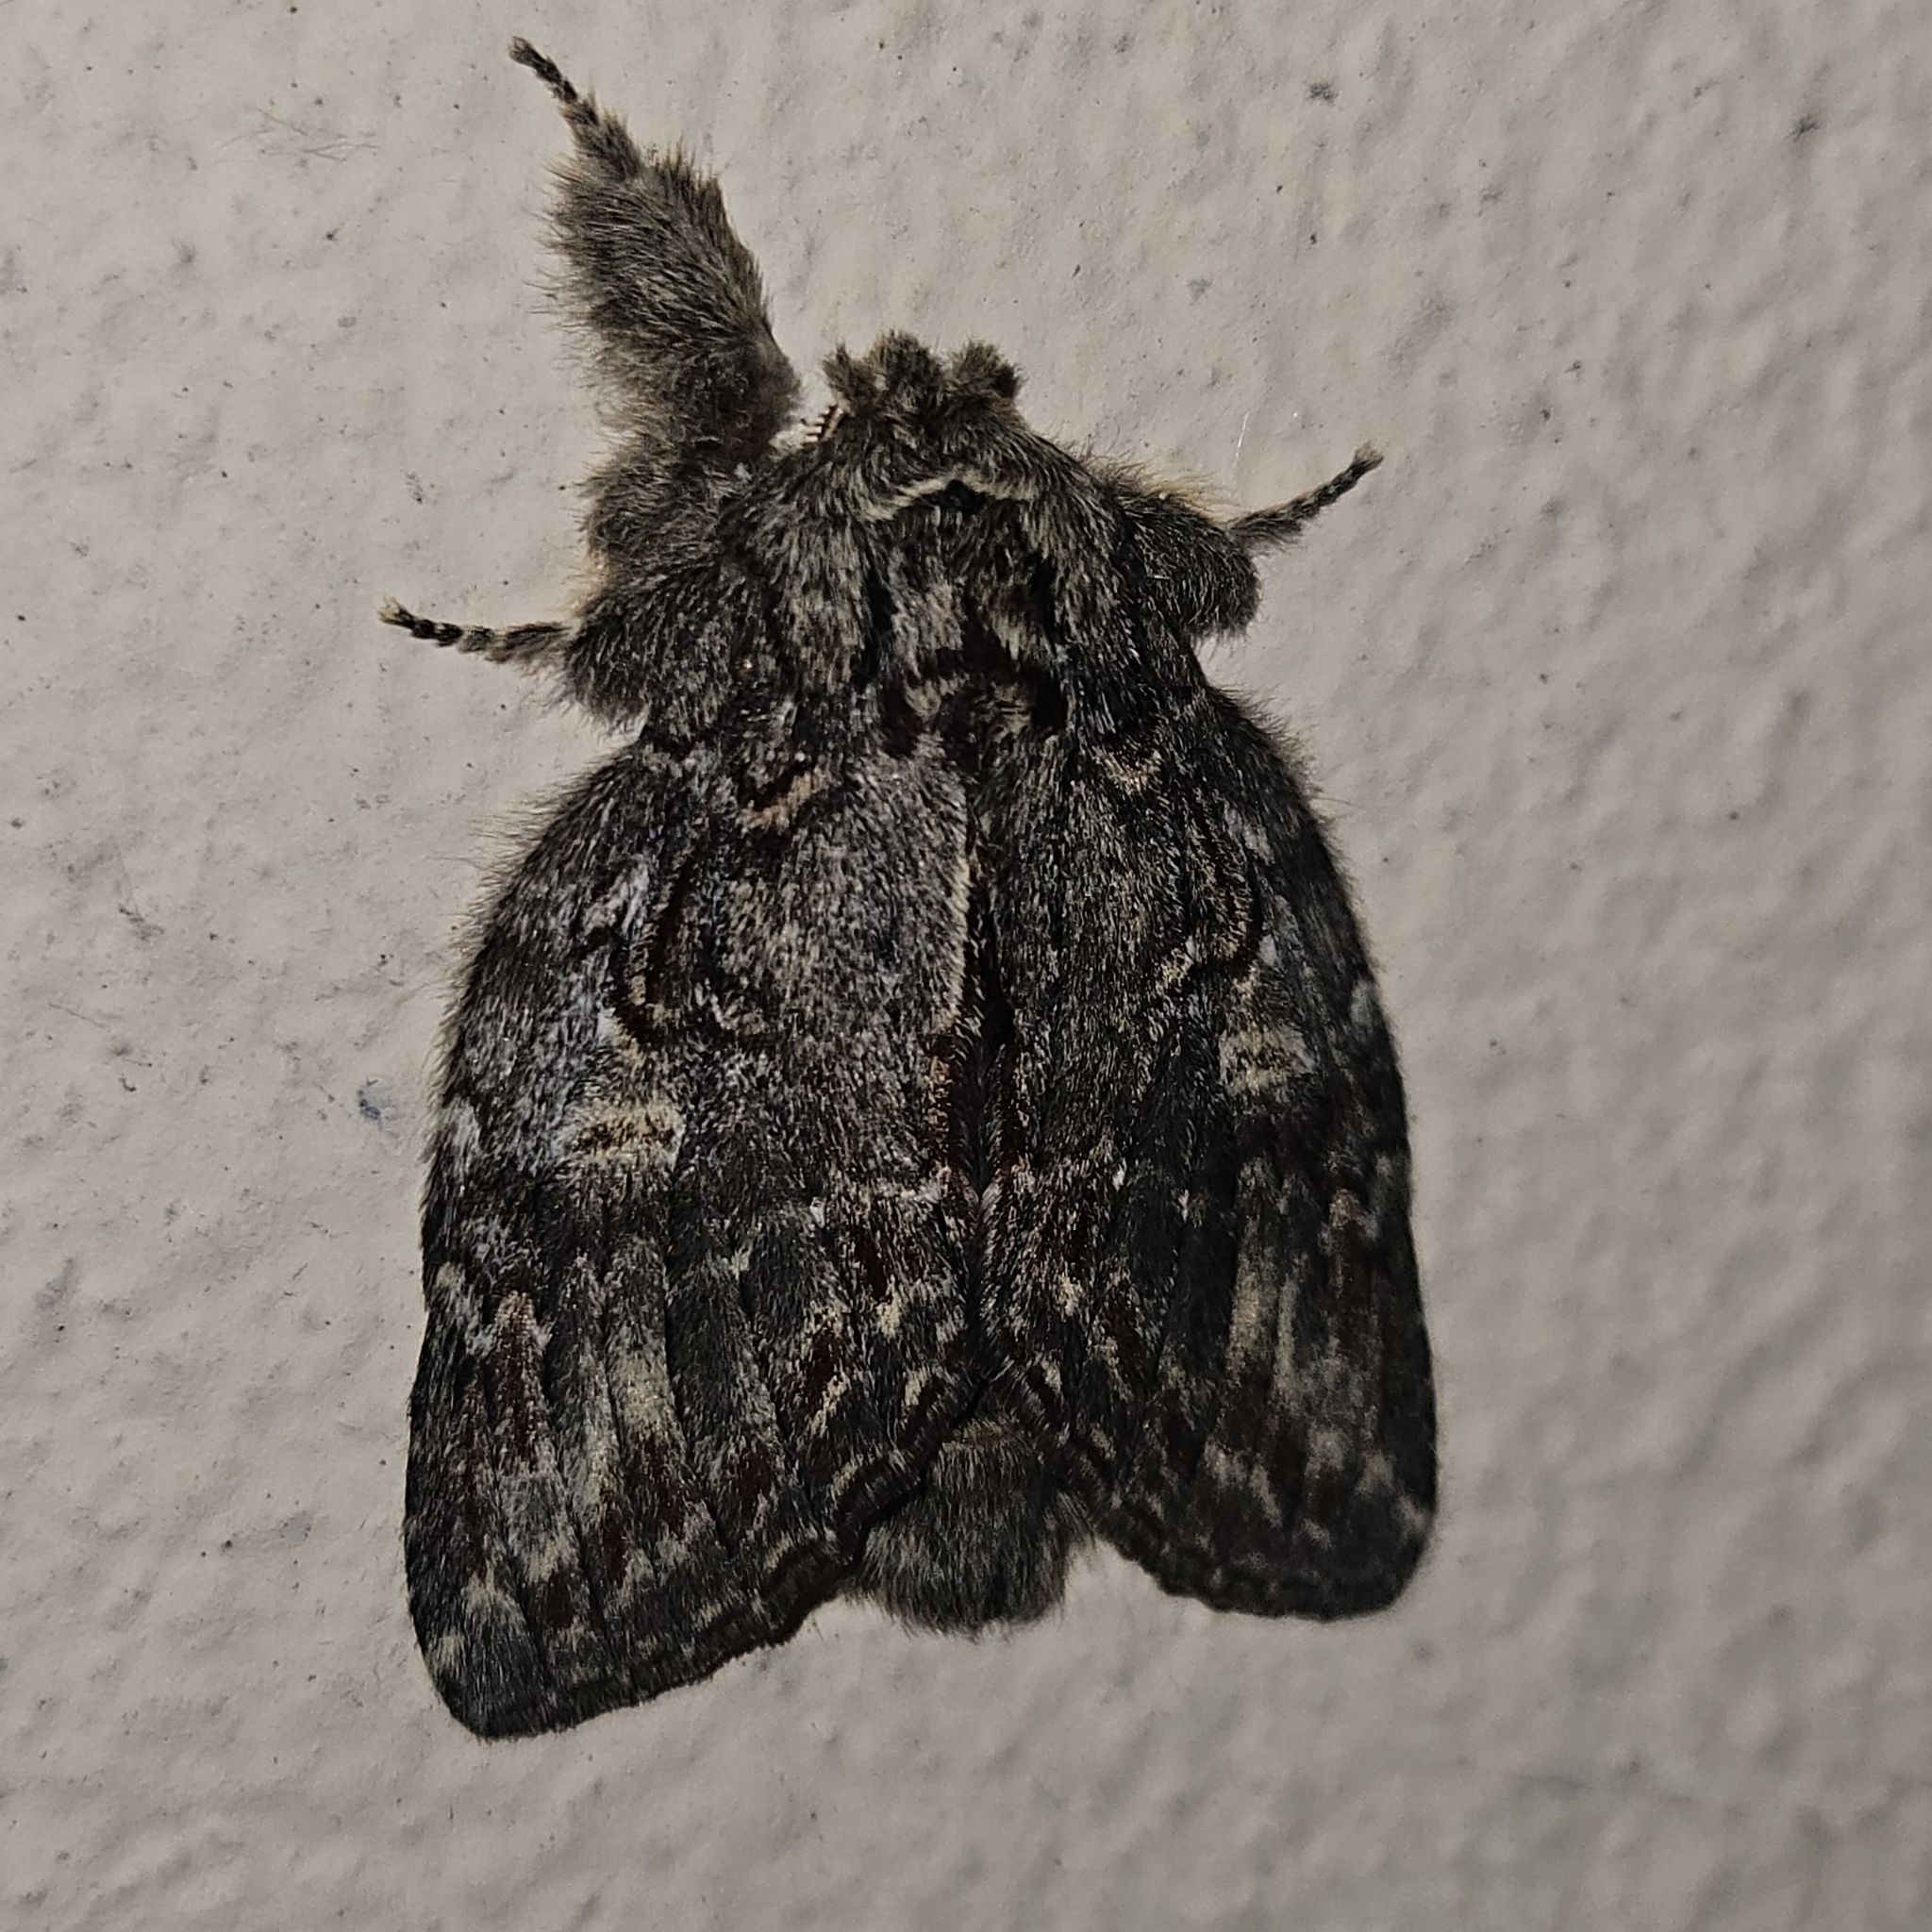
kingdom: Animalia
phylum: Arthropoda
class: Insecta
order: Lepidoptera
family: Notodontidae
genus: Peridea
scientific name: Peridea anceps
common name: Great prominent
